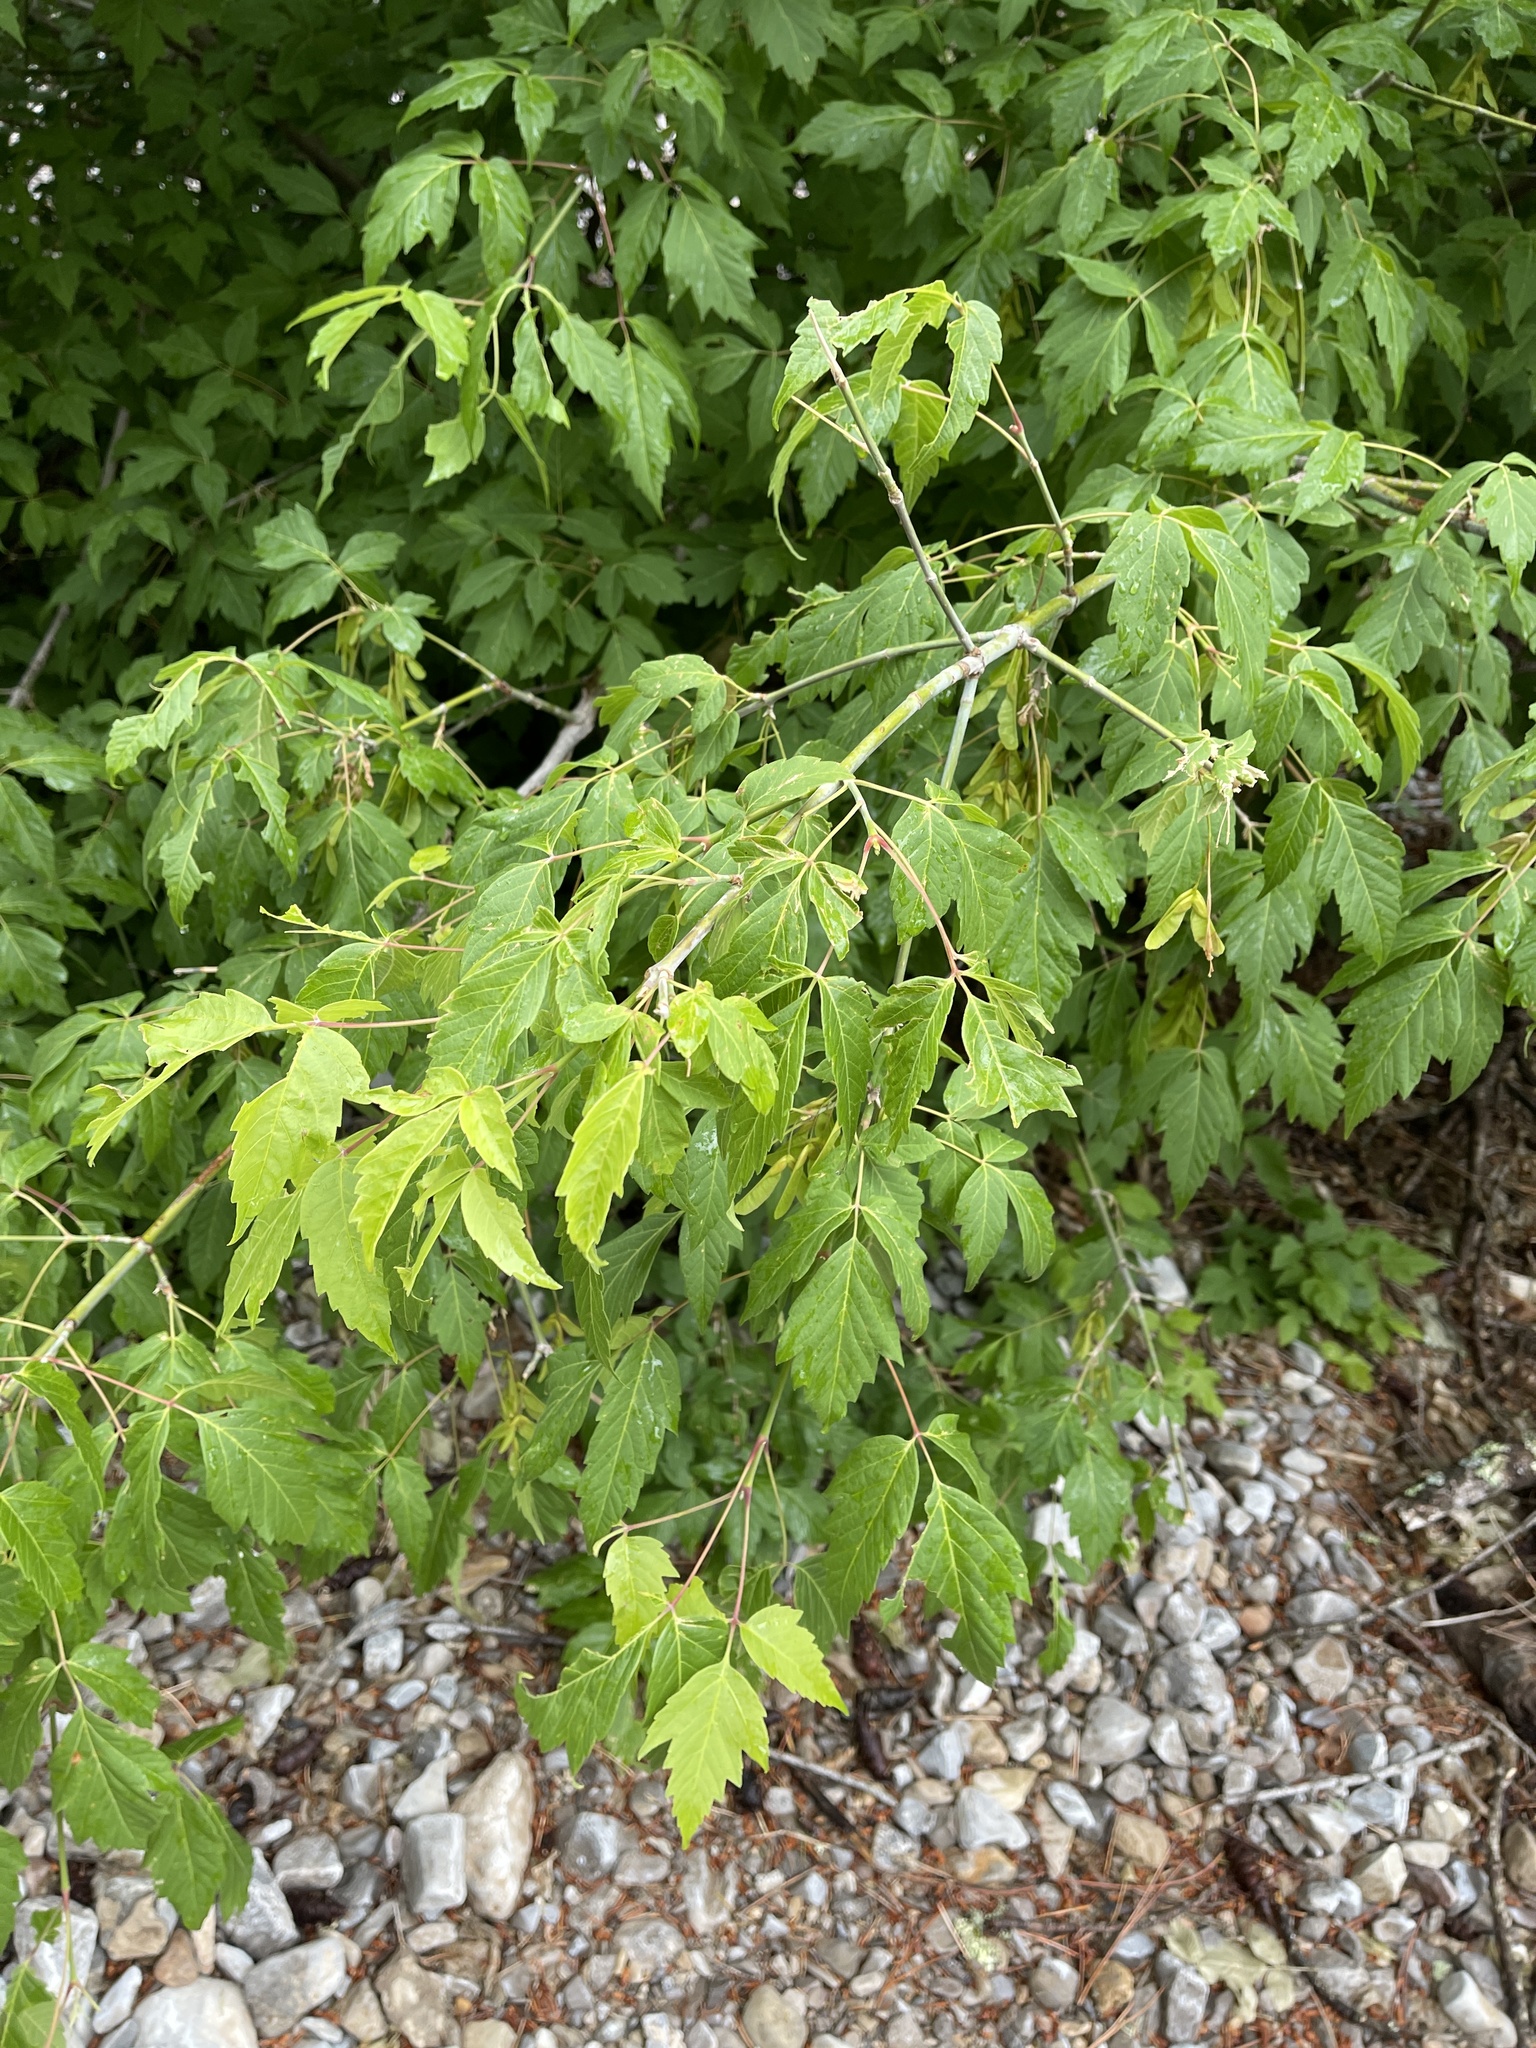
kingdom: Plantae
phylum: Tracheophyta
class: Magnoliopsida
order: Sapindales
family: Sapindaceae
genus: Acer
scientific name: Acer negundo
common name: Ashleaf maple
